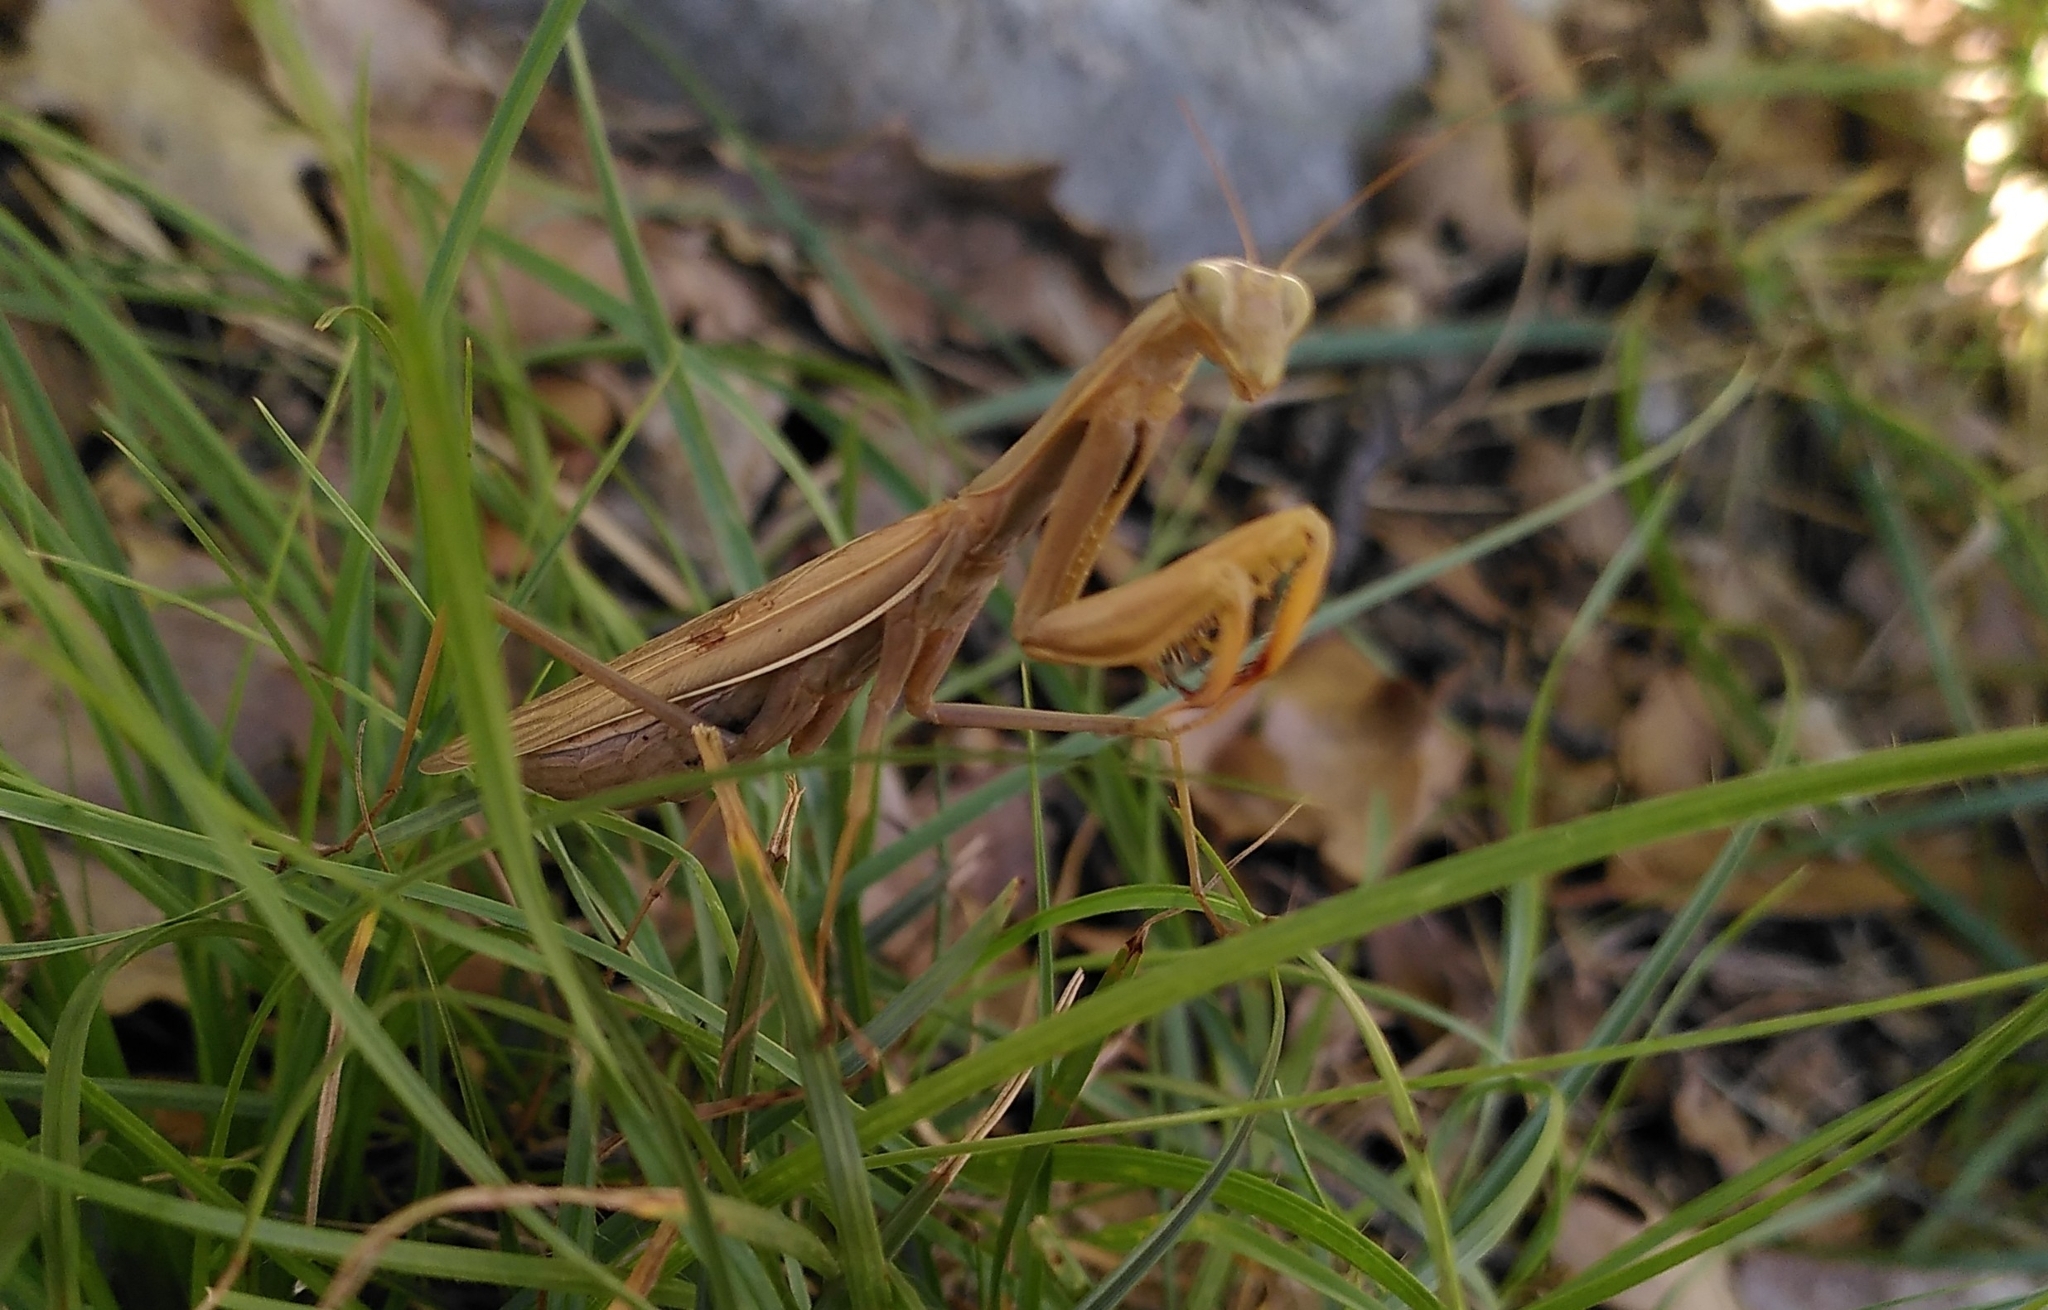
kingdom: Animalia
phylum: Arthropoda
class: Insecta
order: Mantodea
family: Mantidae
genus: Mantis
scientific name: Mantis religiosa
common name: Praying mantis
